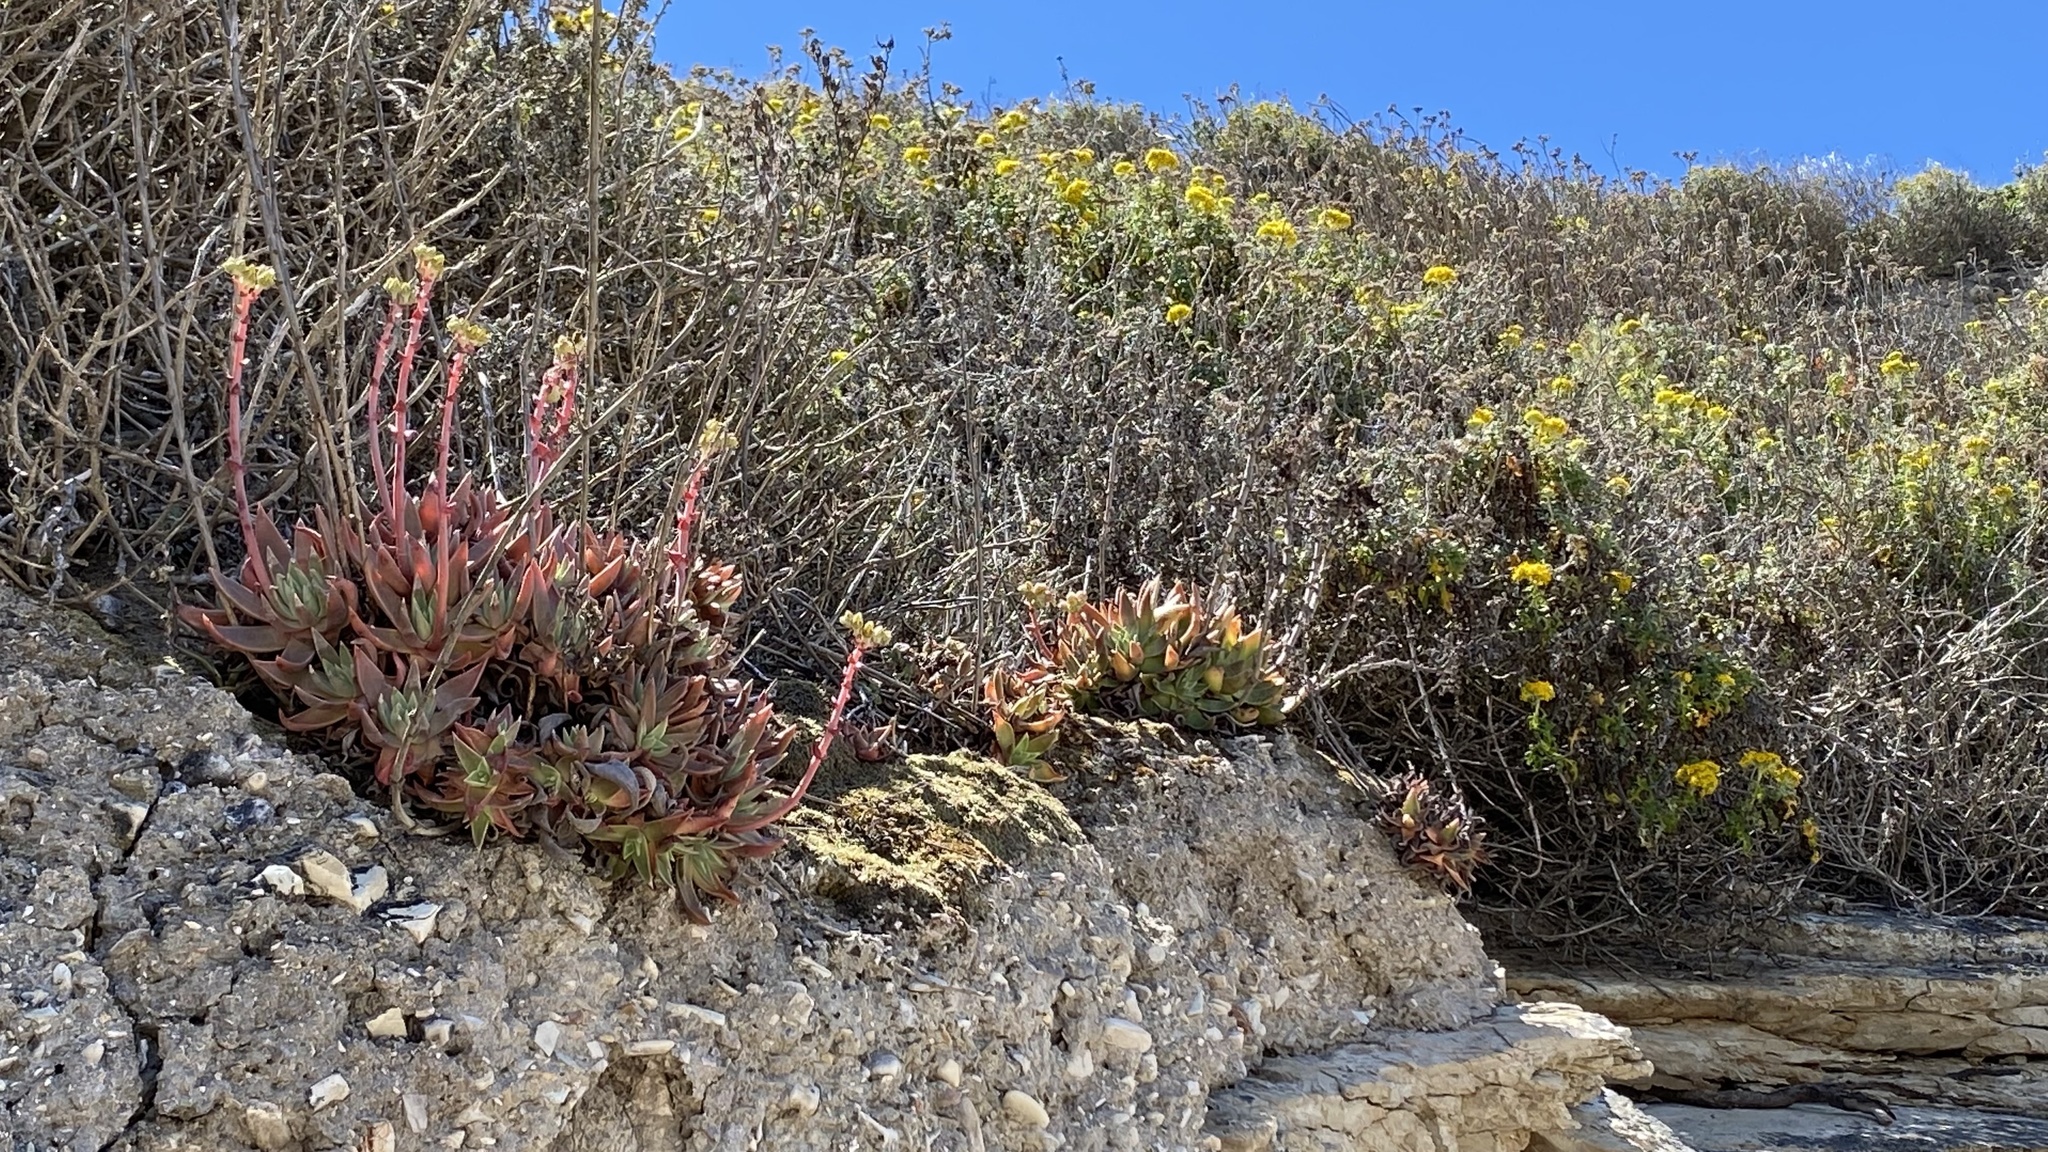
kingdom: Plantae
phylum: Tracheophyta
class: Magnoliopsida
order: Saxifragales
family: Crassulaceae
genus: Dudleya
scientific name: Dudleya caespitosa
